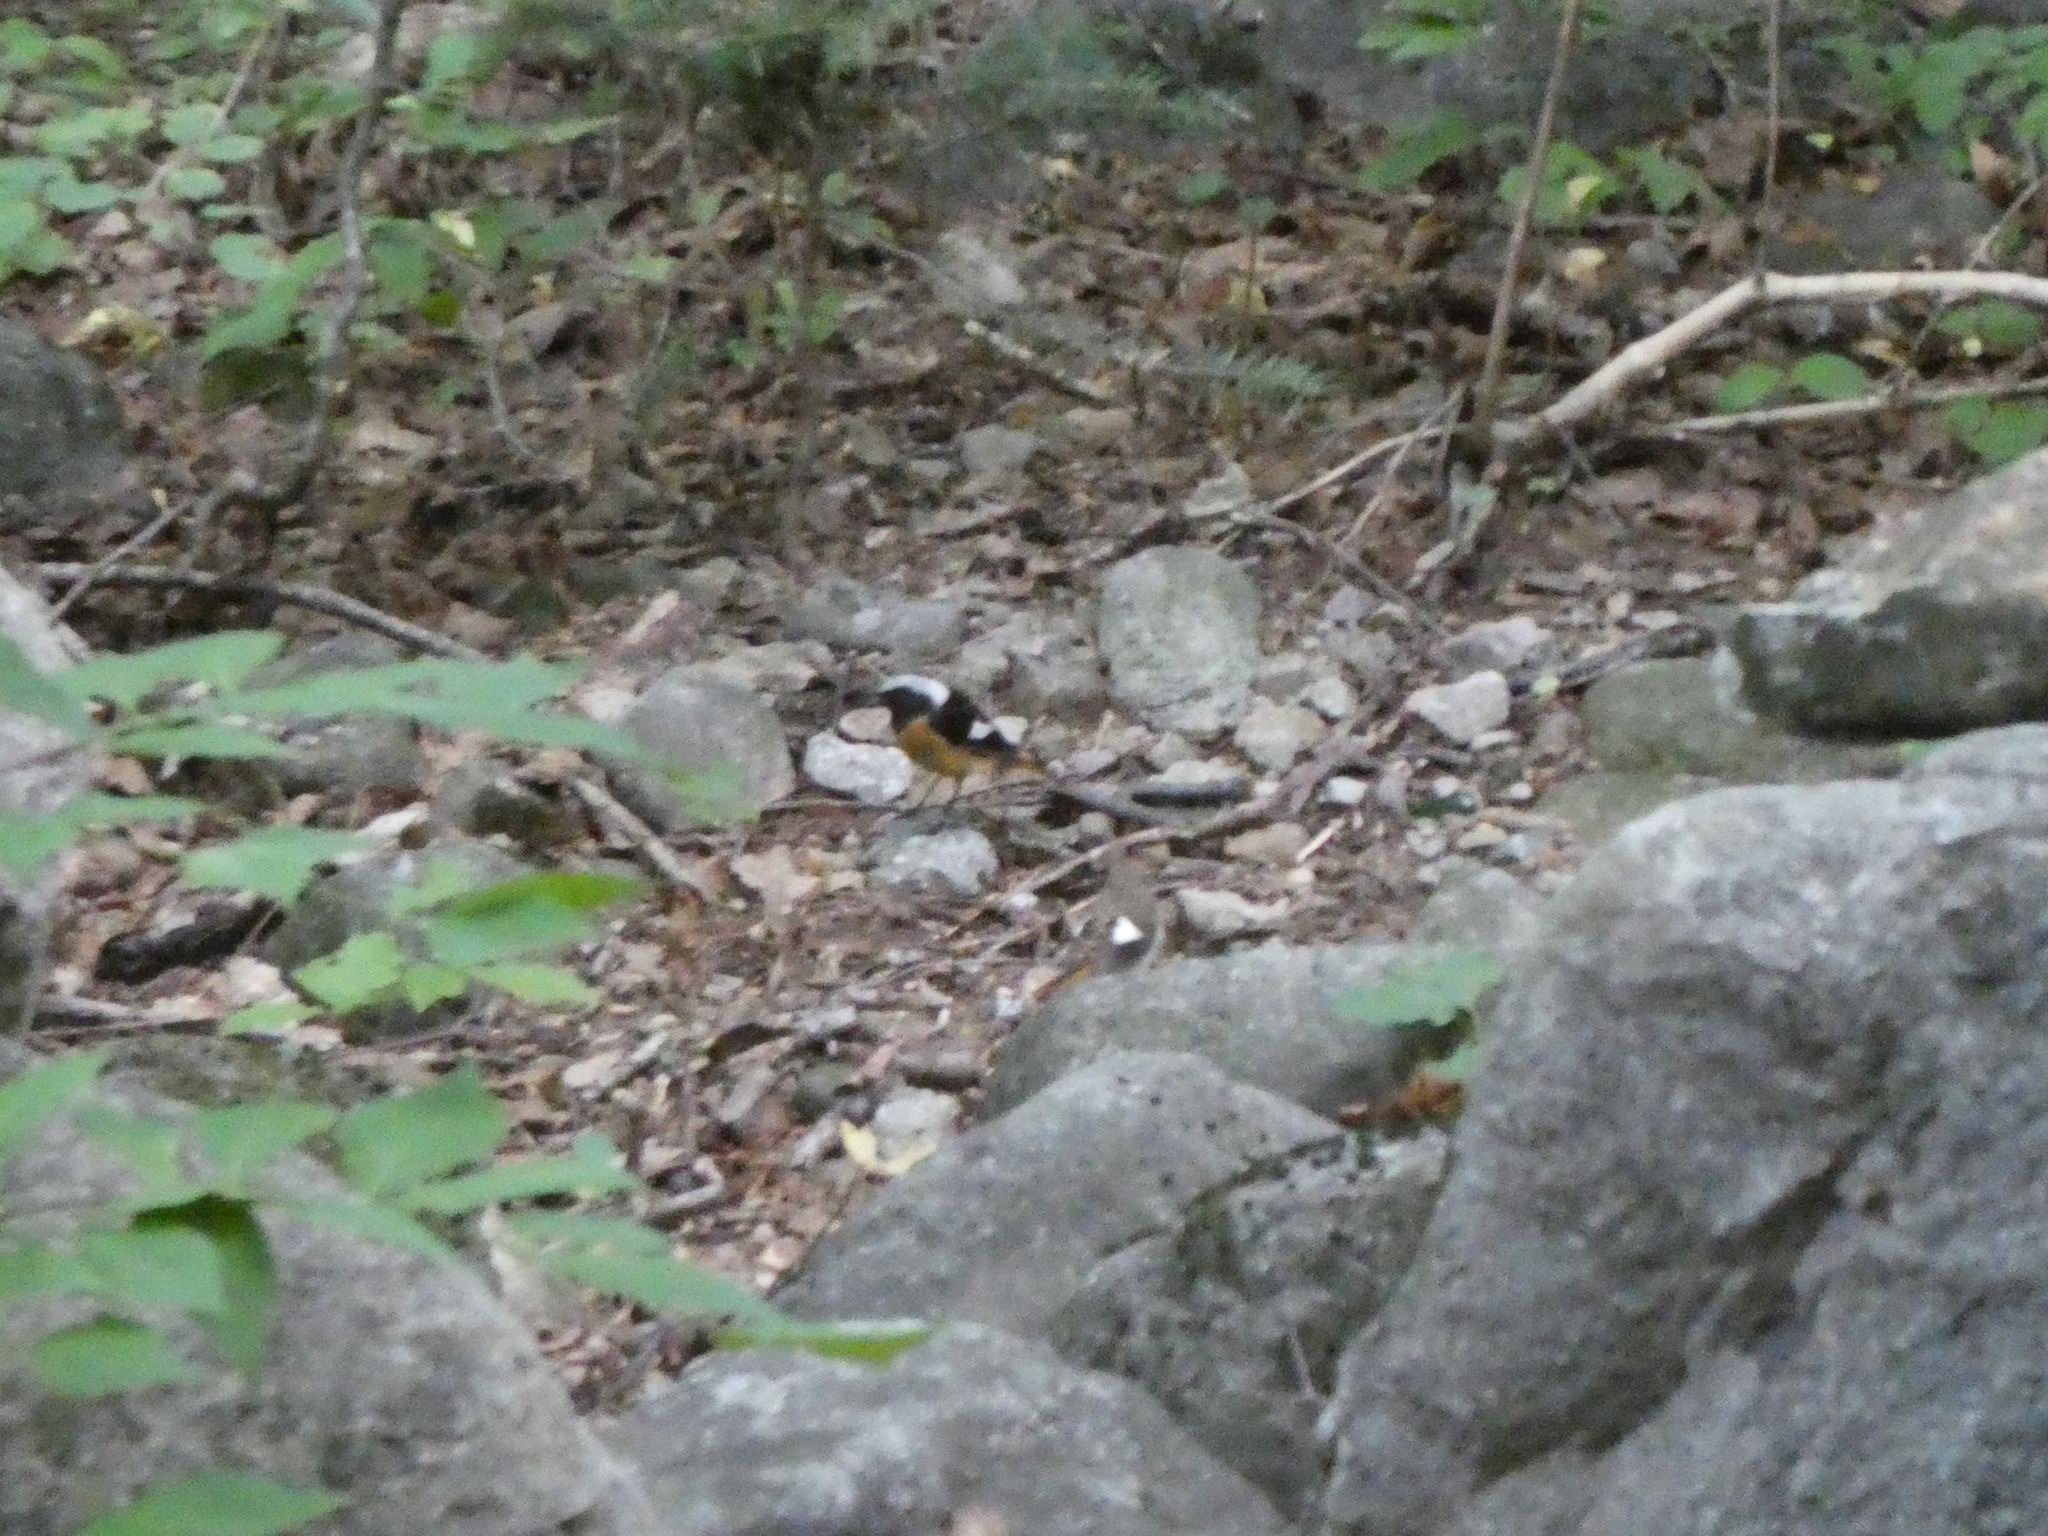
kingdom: Animalia
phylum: Chordata
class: Aves
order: Passeriformes
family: Muscicapidae
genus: Phoenicurus
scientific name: Phoenicurus auroreus
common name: Daurian redstart
